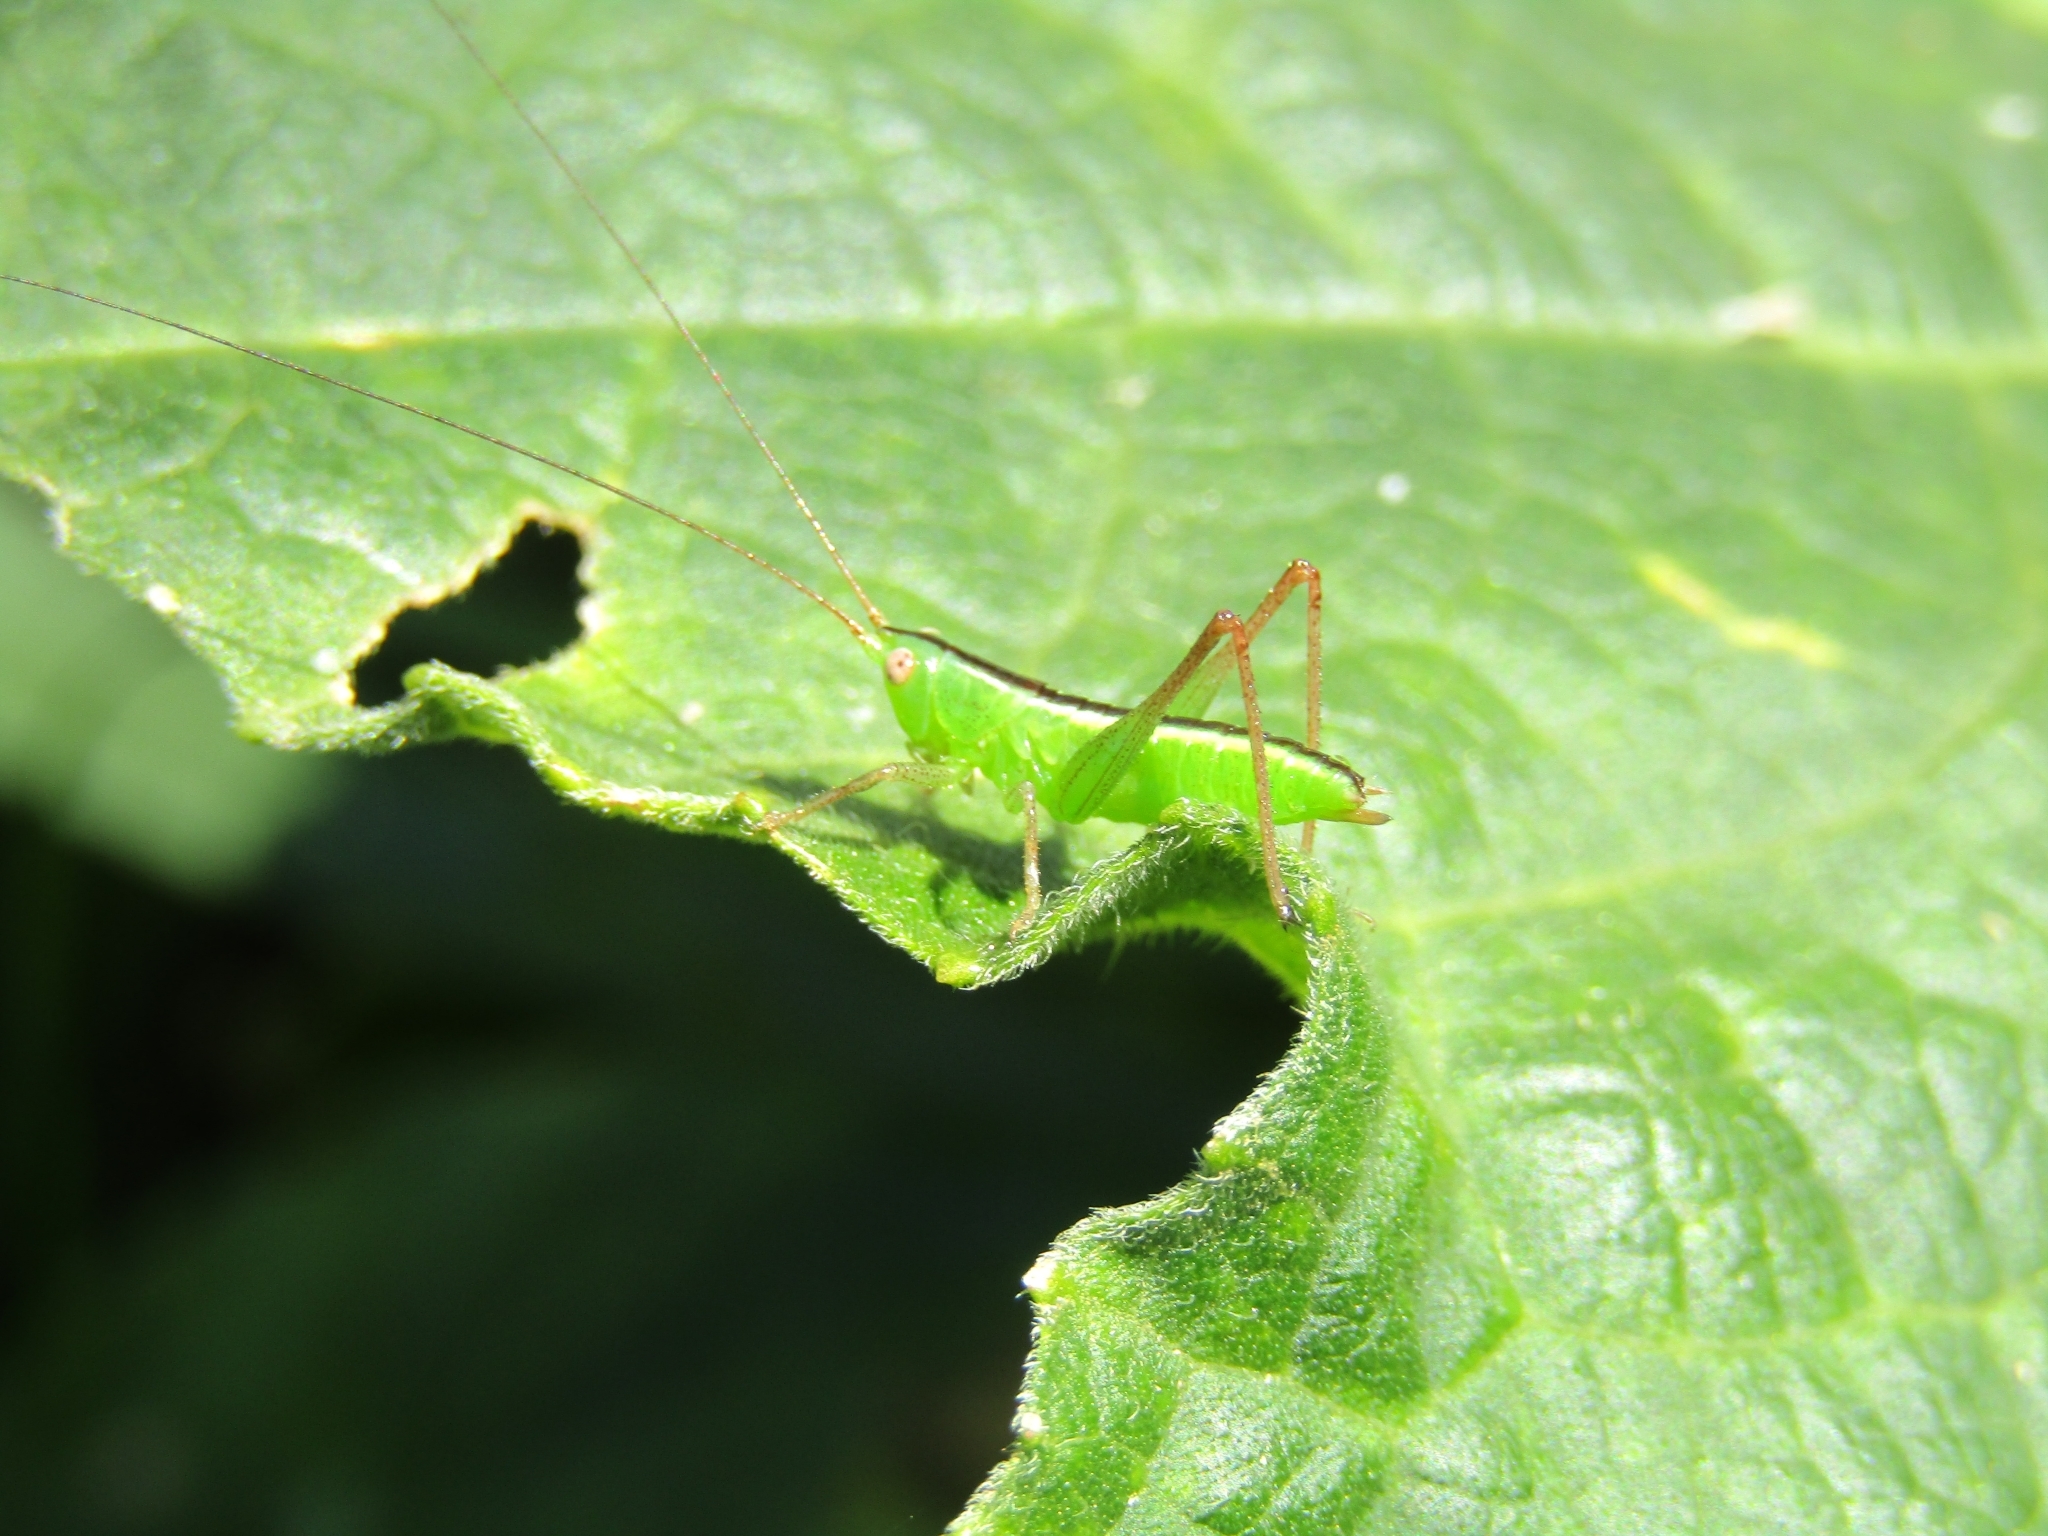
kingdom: Animalia
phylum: Arthropoda
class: Insecta
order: Orthoptera
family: Tettigoniidae
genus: Conocephalus
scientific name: Conocephalus longipes
